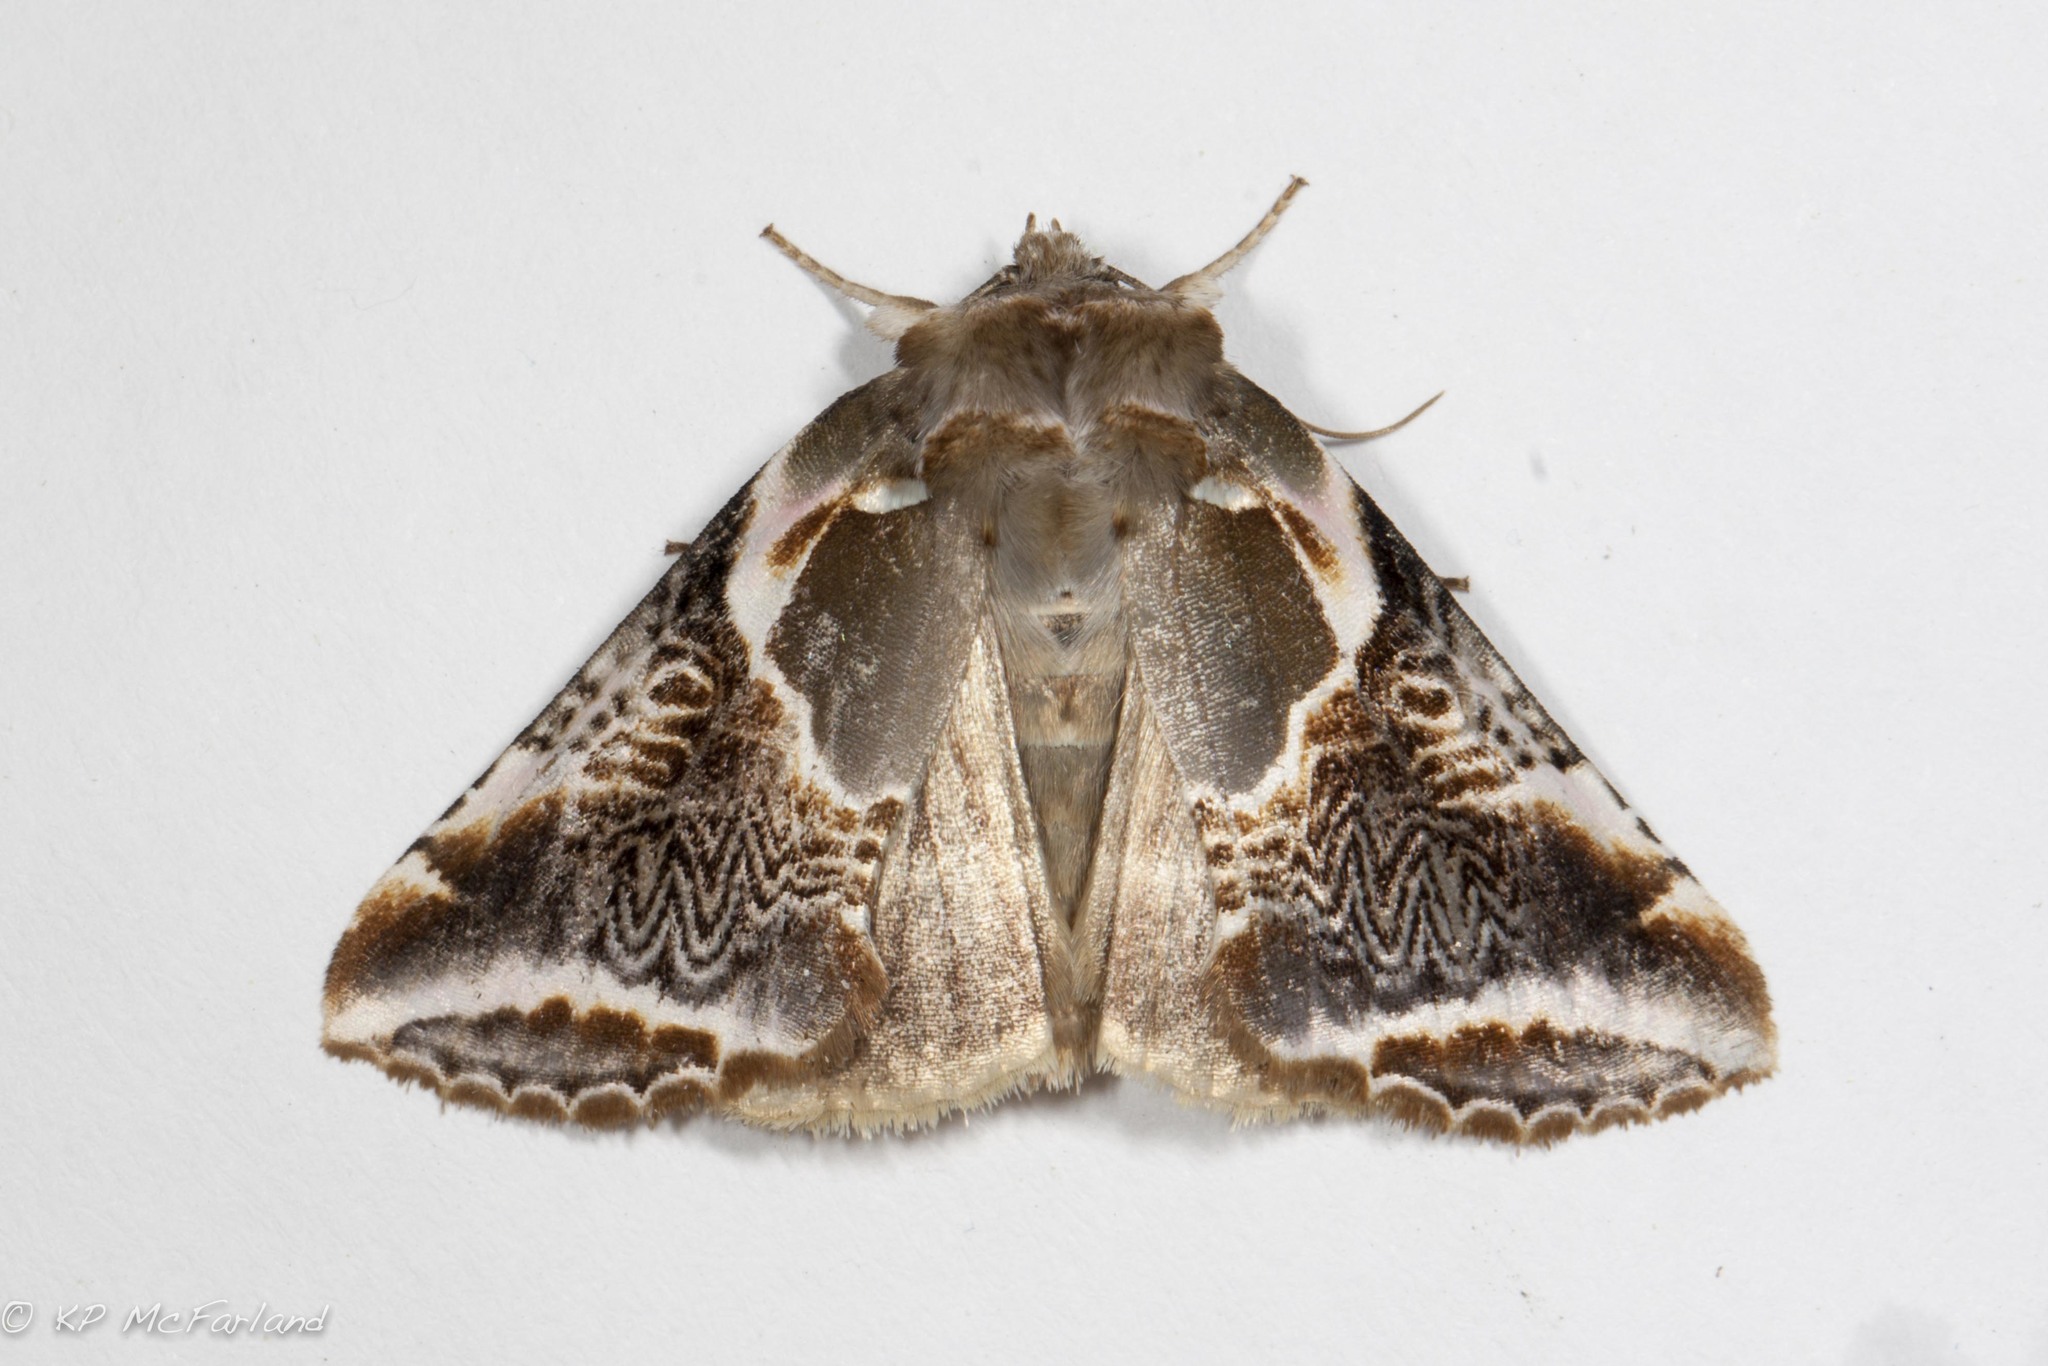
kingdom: Animalia
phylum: Arthropoda
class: Insecta
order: Lepidoptera
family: Drepanidae
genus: Habrosyne
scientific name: Habrosyne scripta
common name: Lettered habrosyne moth
